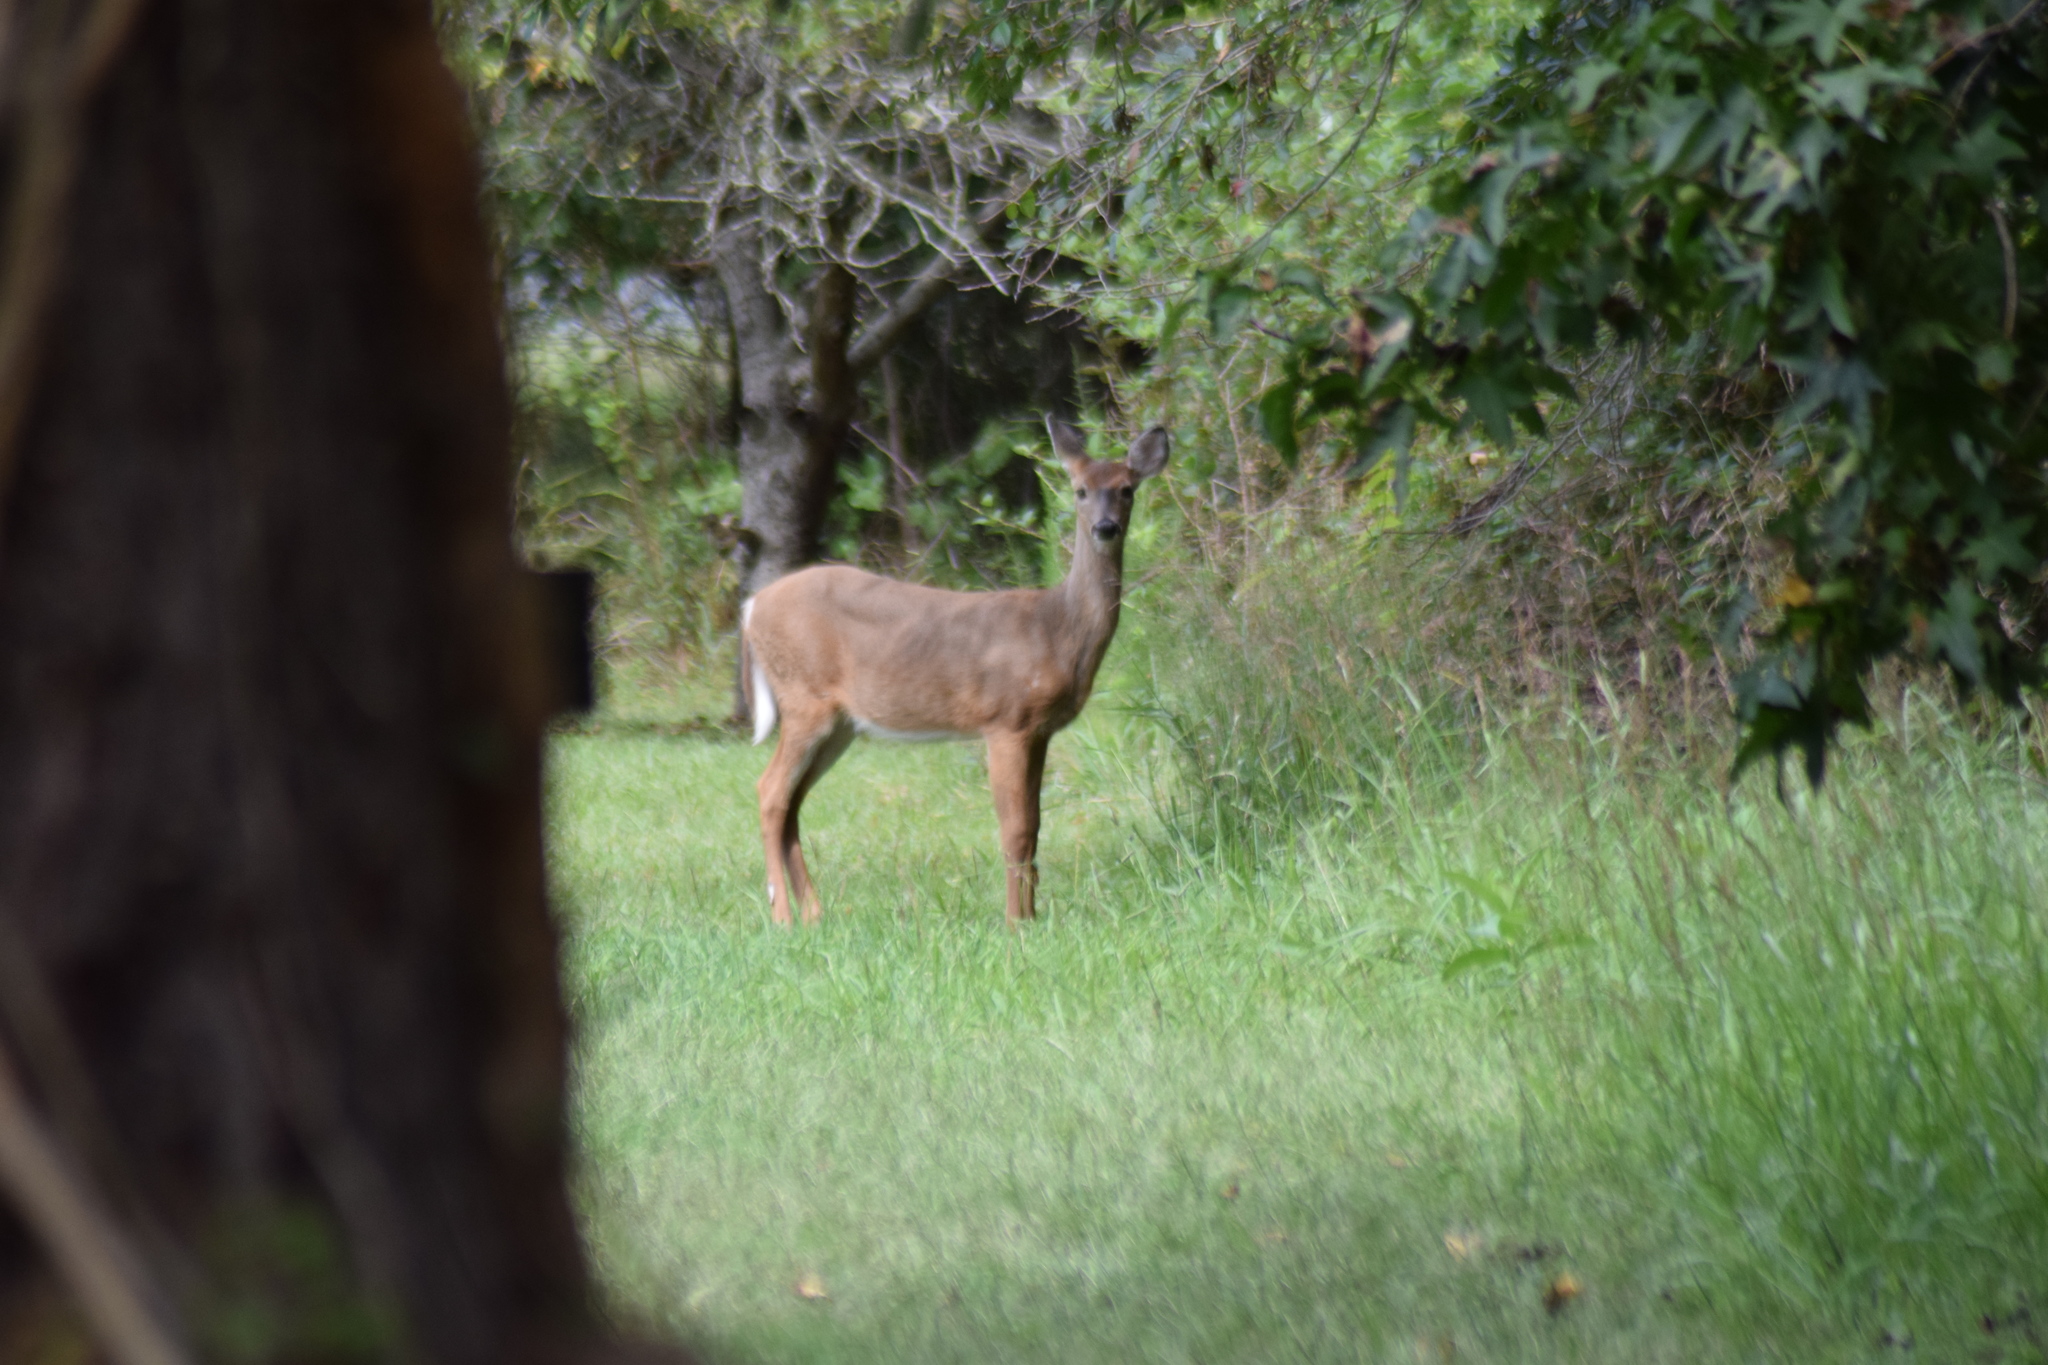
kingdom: Animalia
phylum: Chordata
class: Mammalia
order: Artiodactyla
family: Cervidae
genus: Odocoileus
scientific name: Odocoileus virginianus
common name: White-tailed deer
